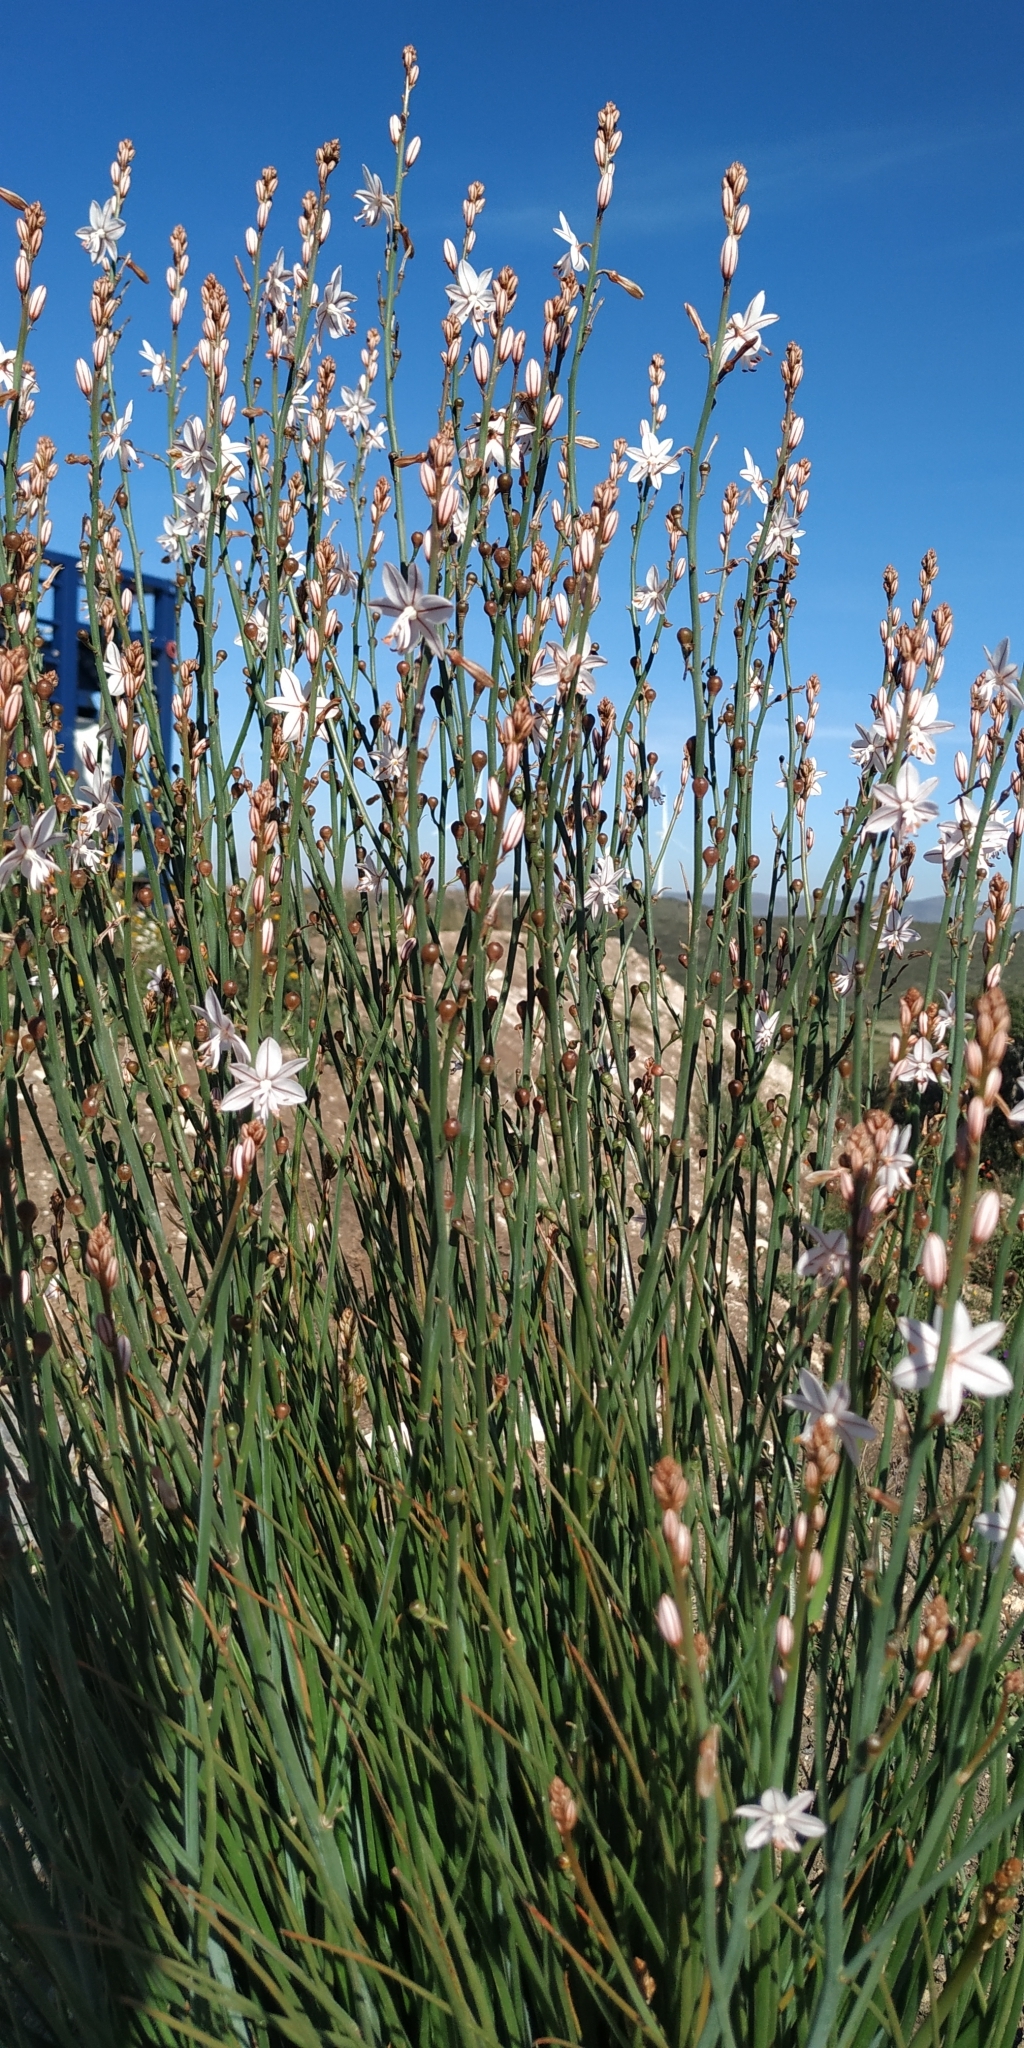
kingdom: Plantae
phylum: Tracheophyta
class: Liliopsida
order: Asparagales
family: Asphodelaceae
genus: Asphodelus
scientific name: Asphodelus fistulosus
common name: Onionweed
